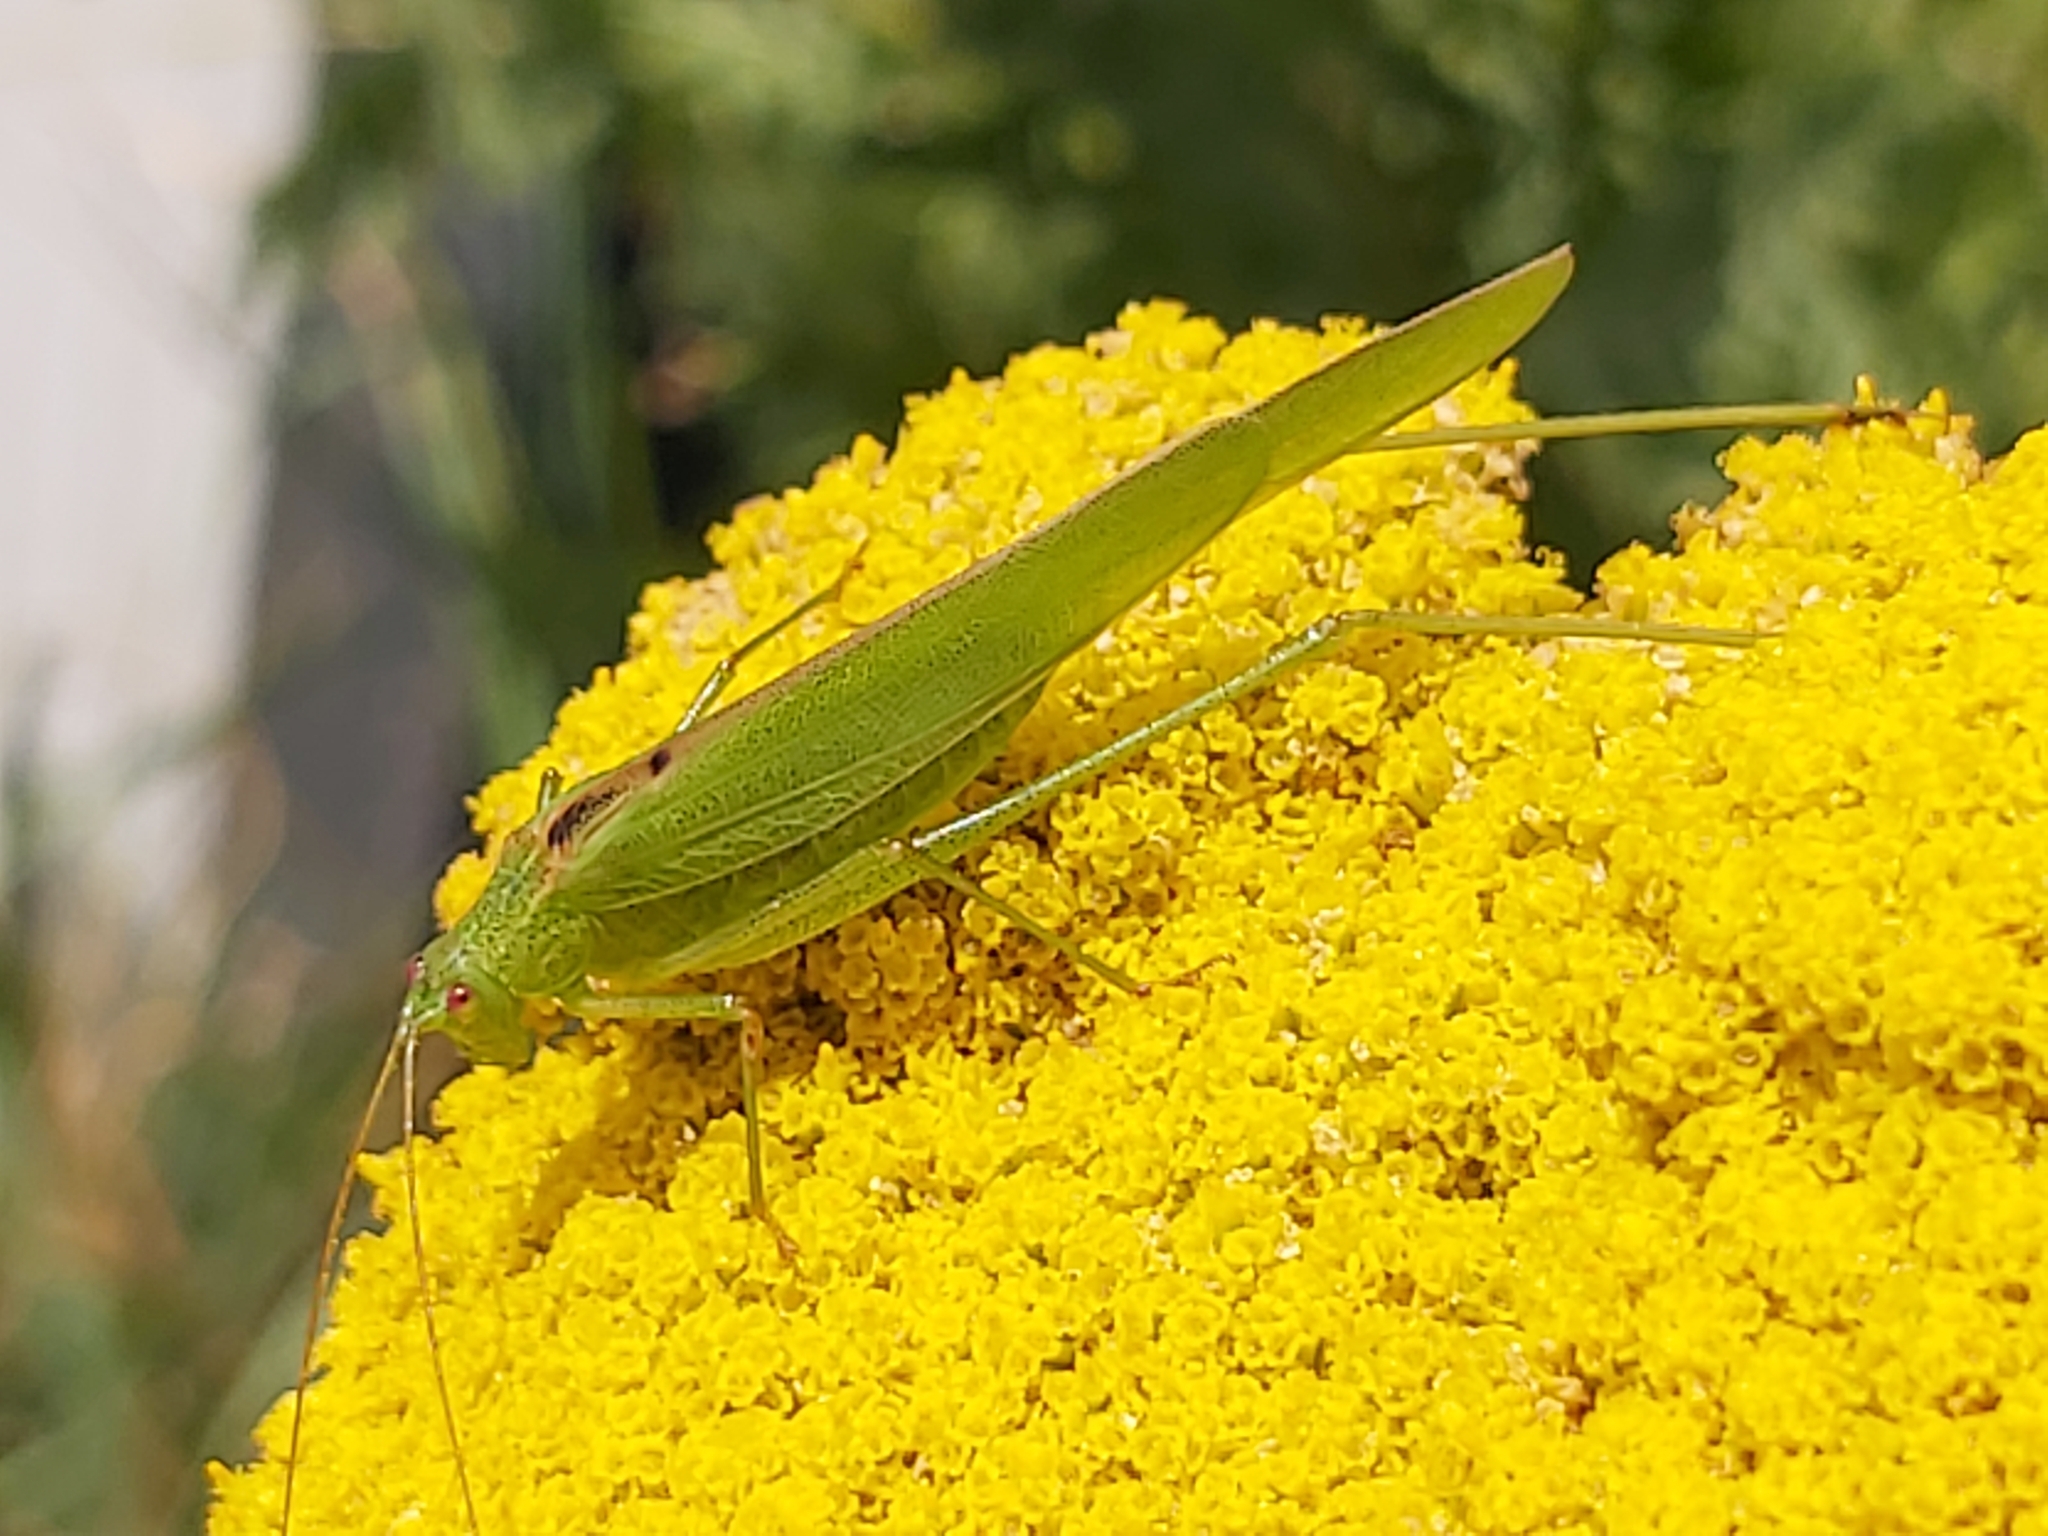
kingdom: Animalia
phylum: Arthropoda
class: Insecta
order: Orthoptera
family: Tettigoniidae
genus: Phaneroptera
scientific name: Phaneroptera falcata
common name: Sickle-bearing bush-cricket
